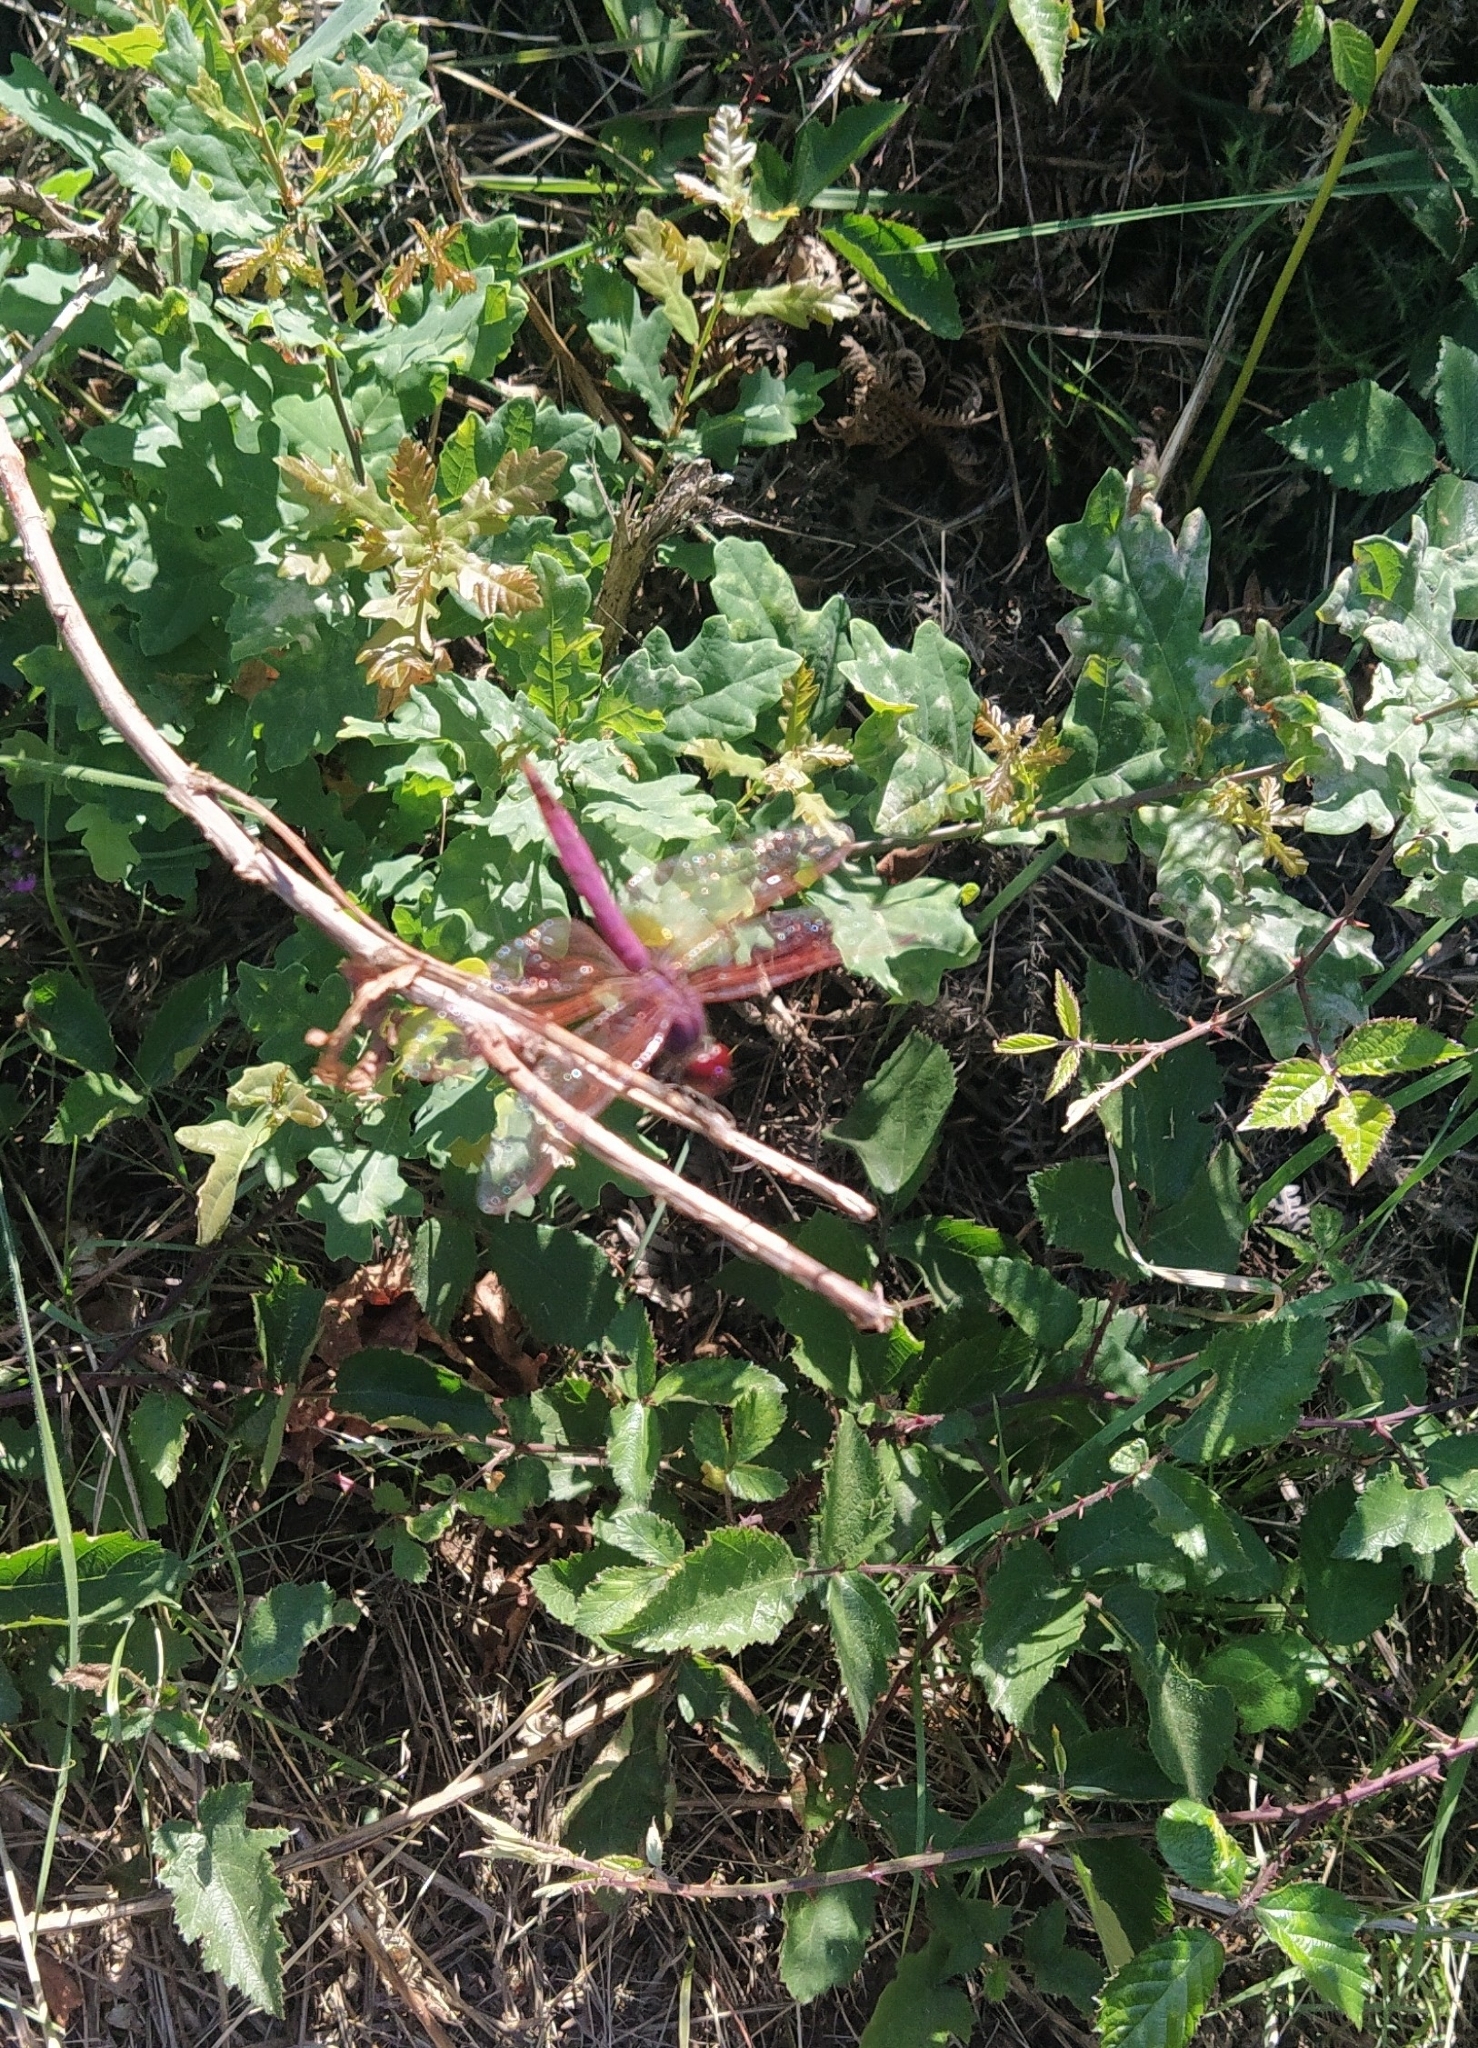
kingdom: Animalia
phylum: Arthropoda
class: Insecta
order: Odonata
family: Libellulidae
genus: Trithemis
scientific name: Trithemis annulata
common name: Violet dropwing
